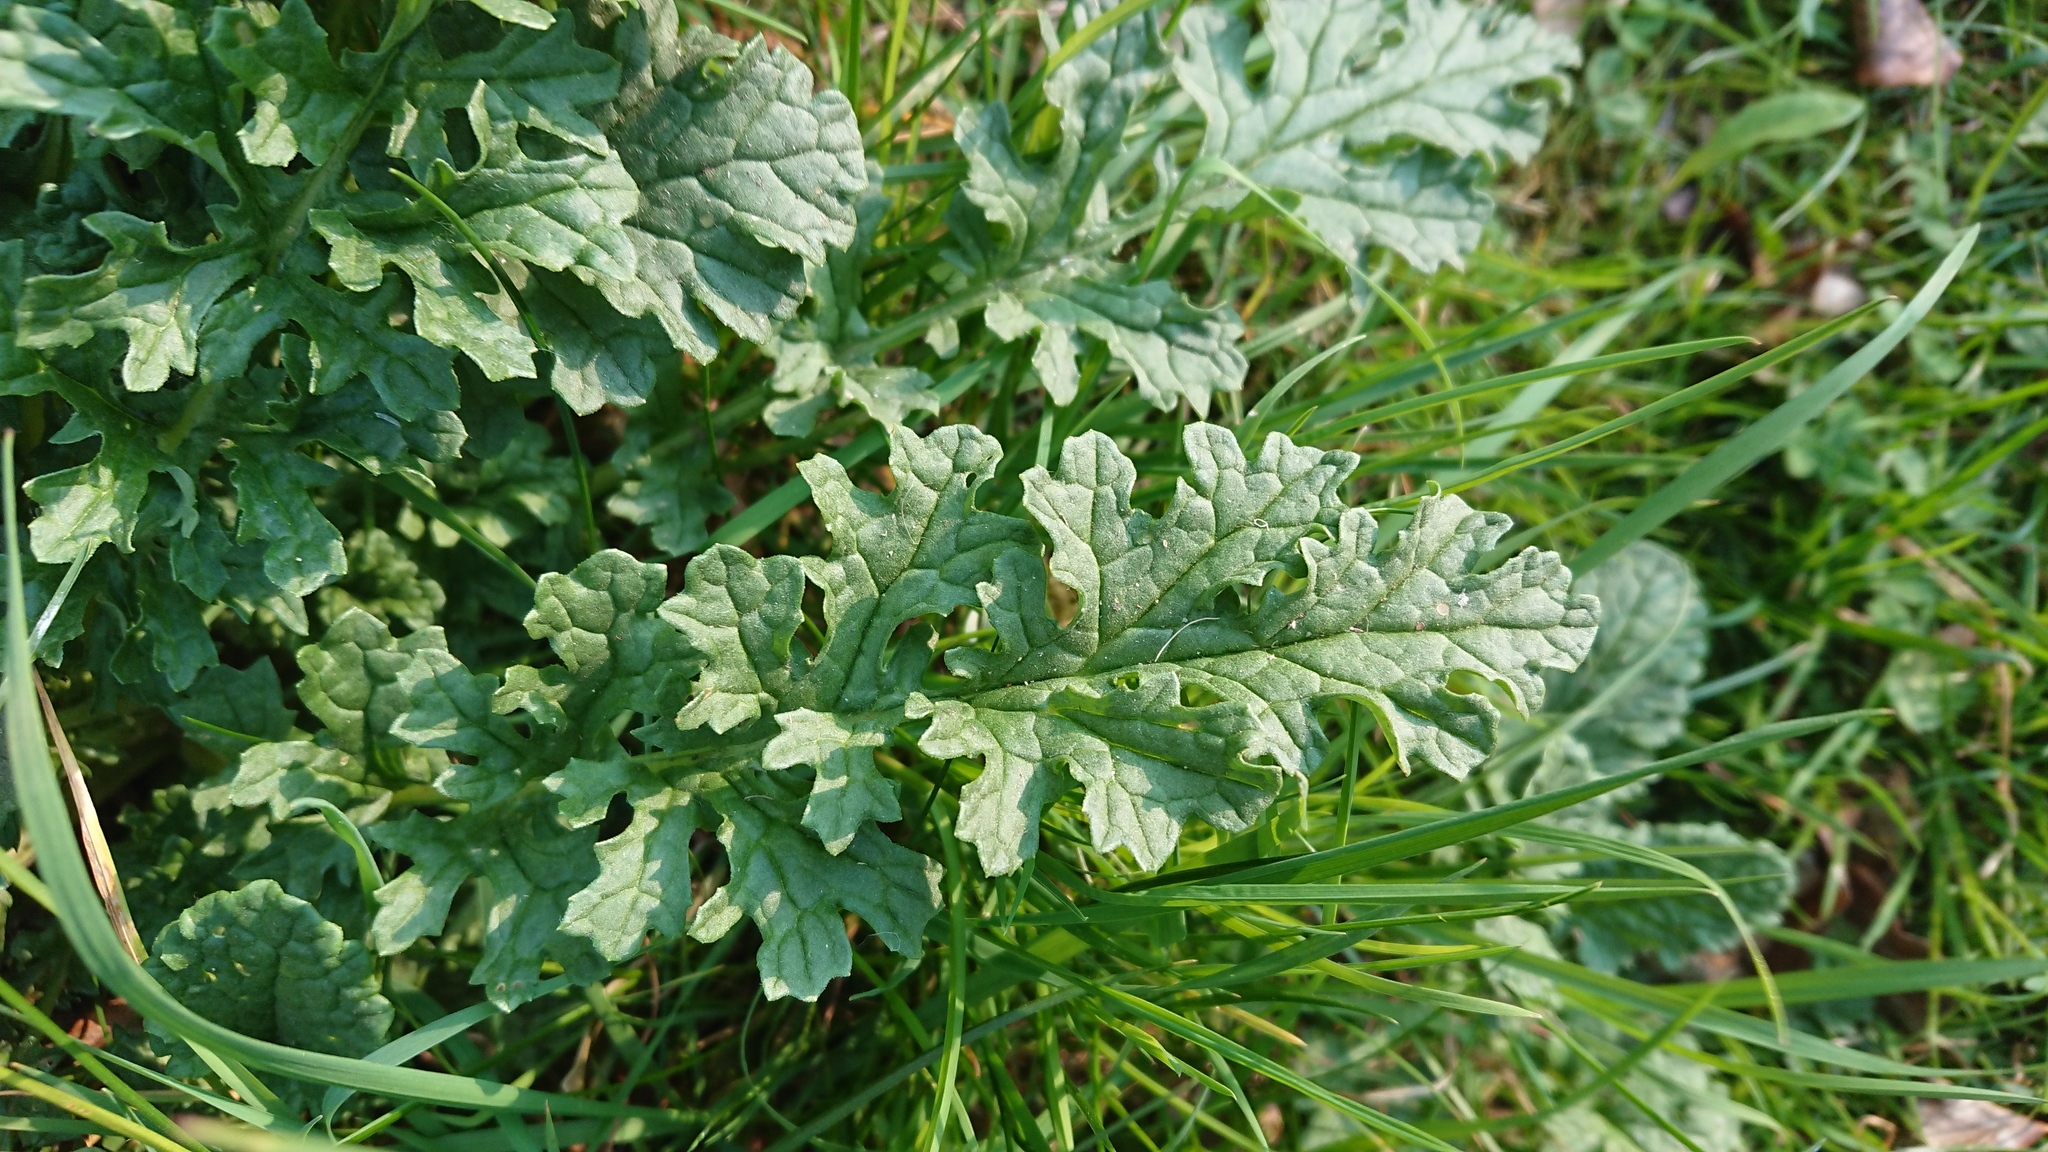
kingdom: Plantae
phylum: Tracheophyta
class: Magnoliopsida
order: Asterales
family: Asteraceae
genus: Jacobaea
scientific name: Jacobaea vulgaris
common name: Stinking willie
